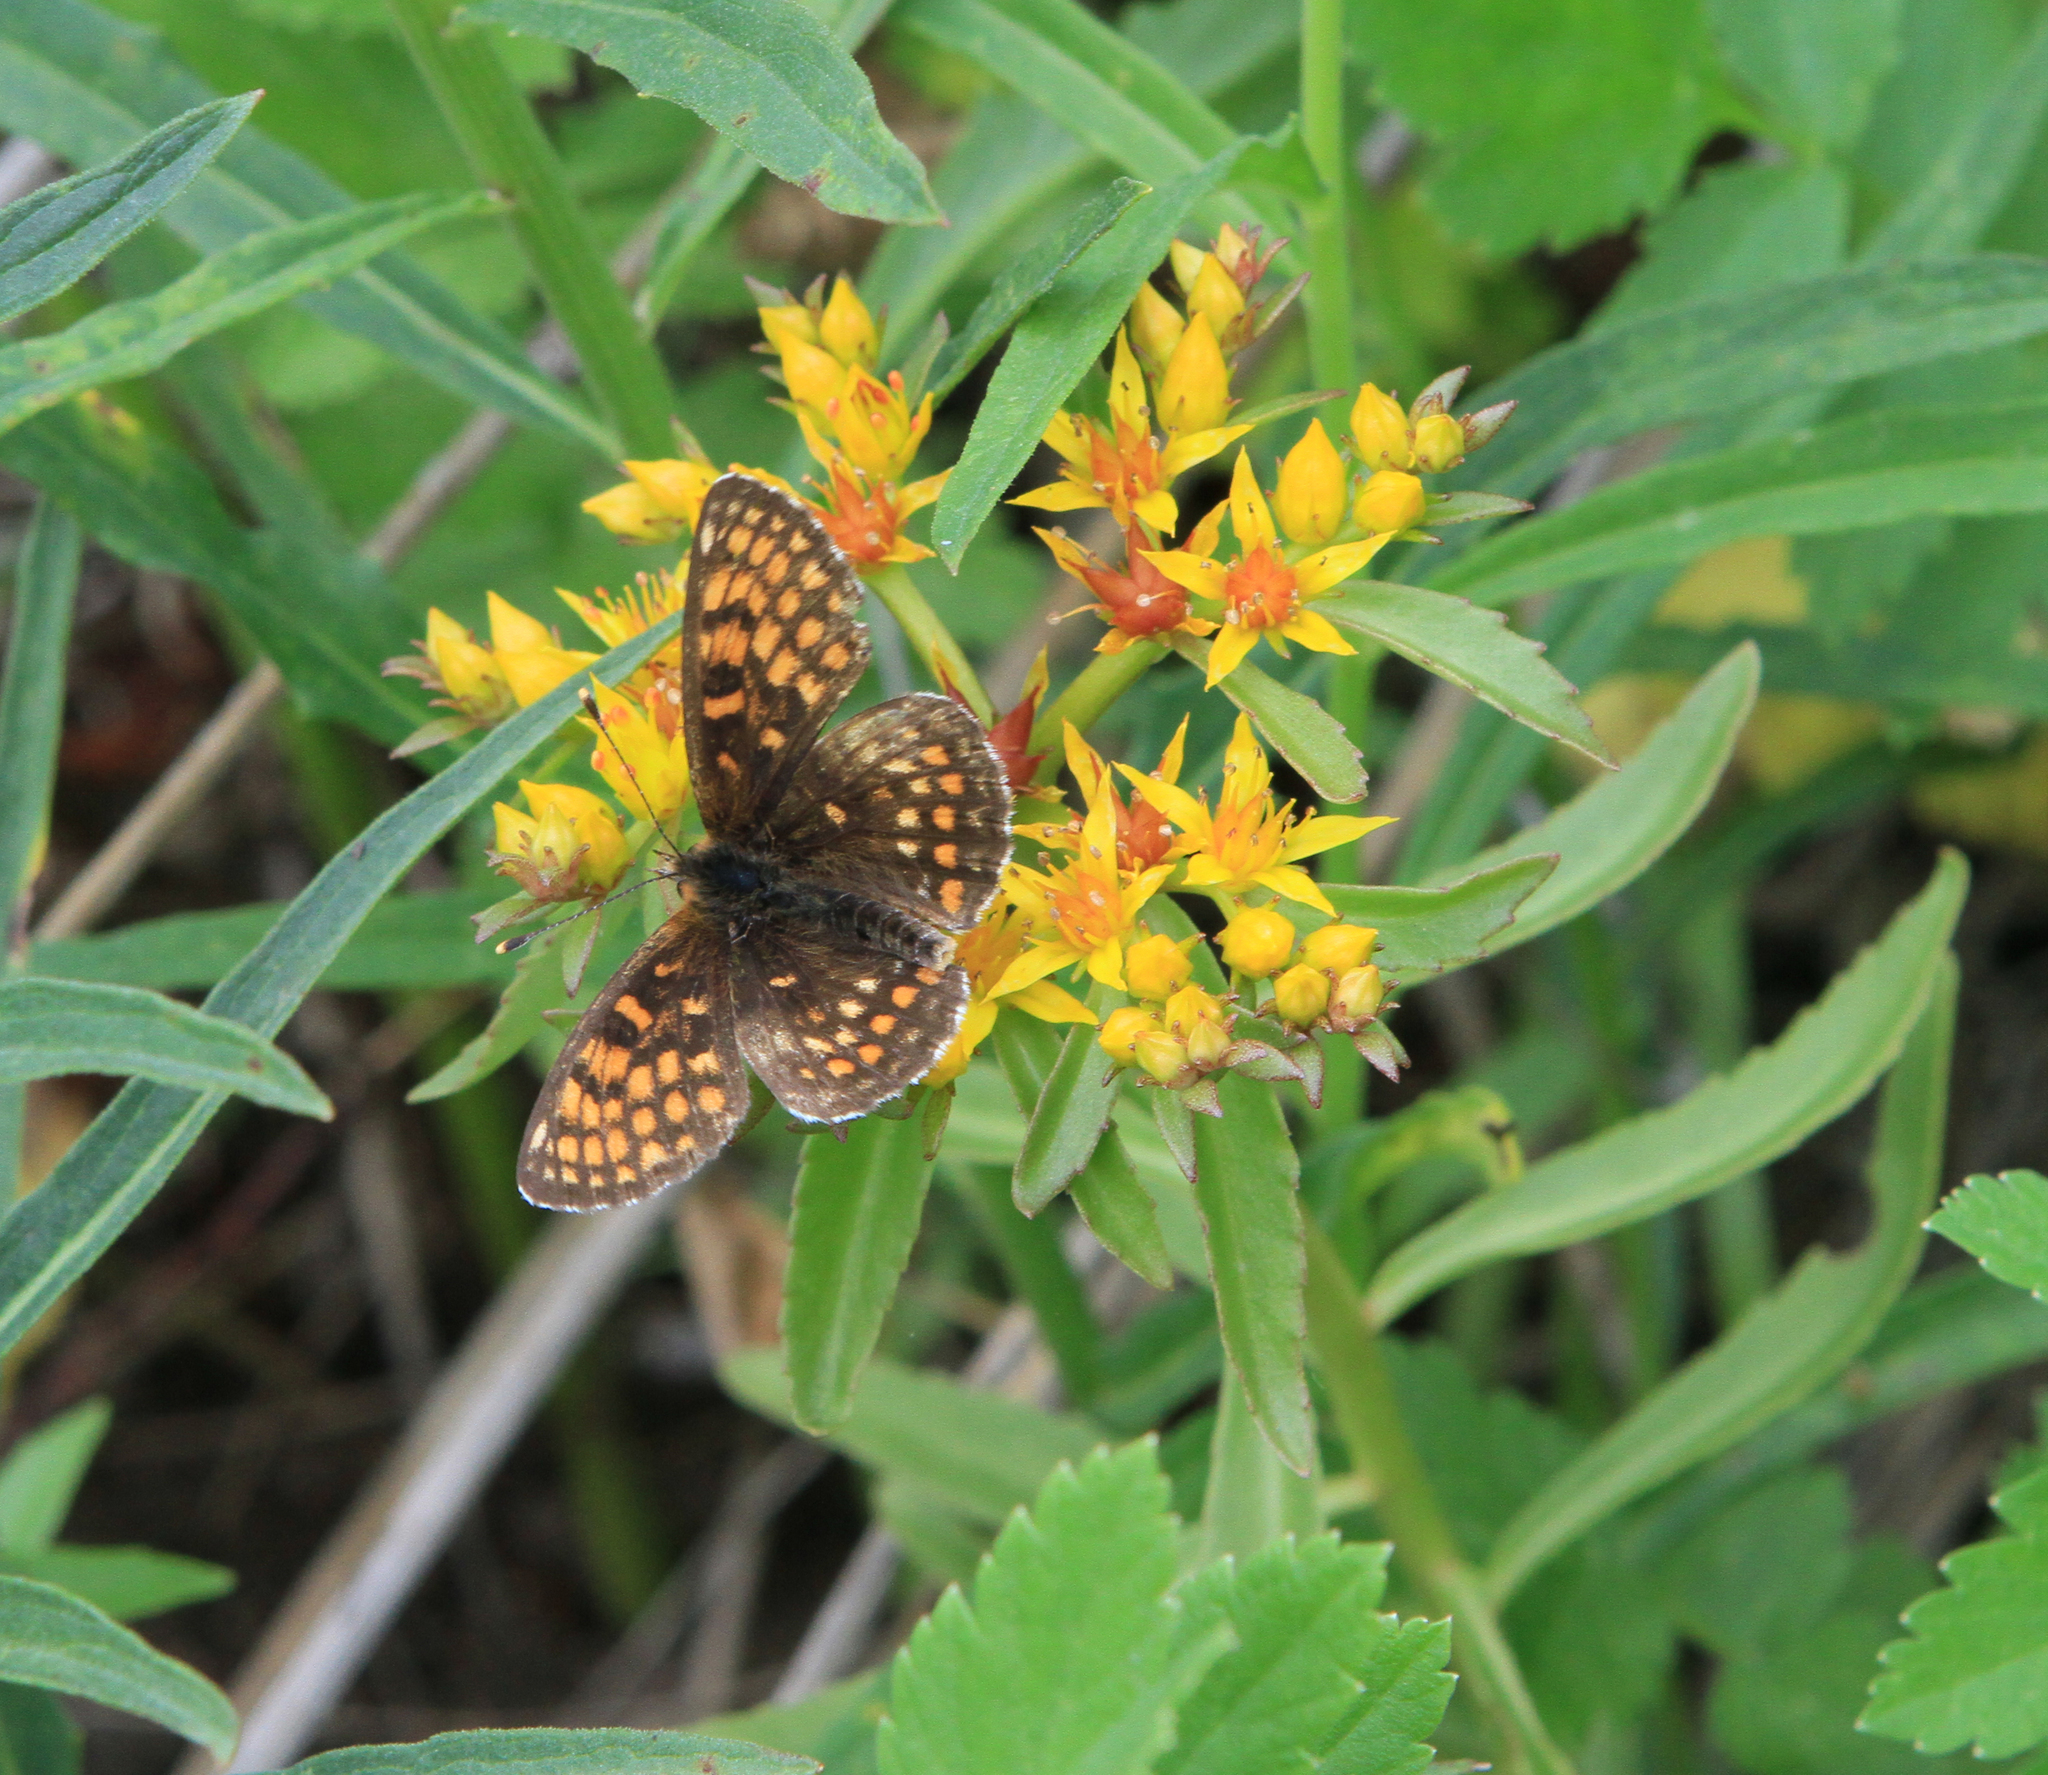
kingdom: Plantae
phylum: Tracheophyta
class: Magnoliopsida
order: Saxifragales
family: Crassulaceae
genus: Phedimus
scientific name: Phedimus aizoon
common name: Orpin aizoon
